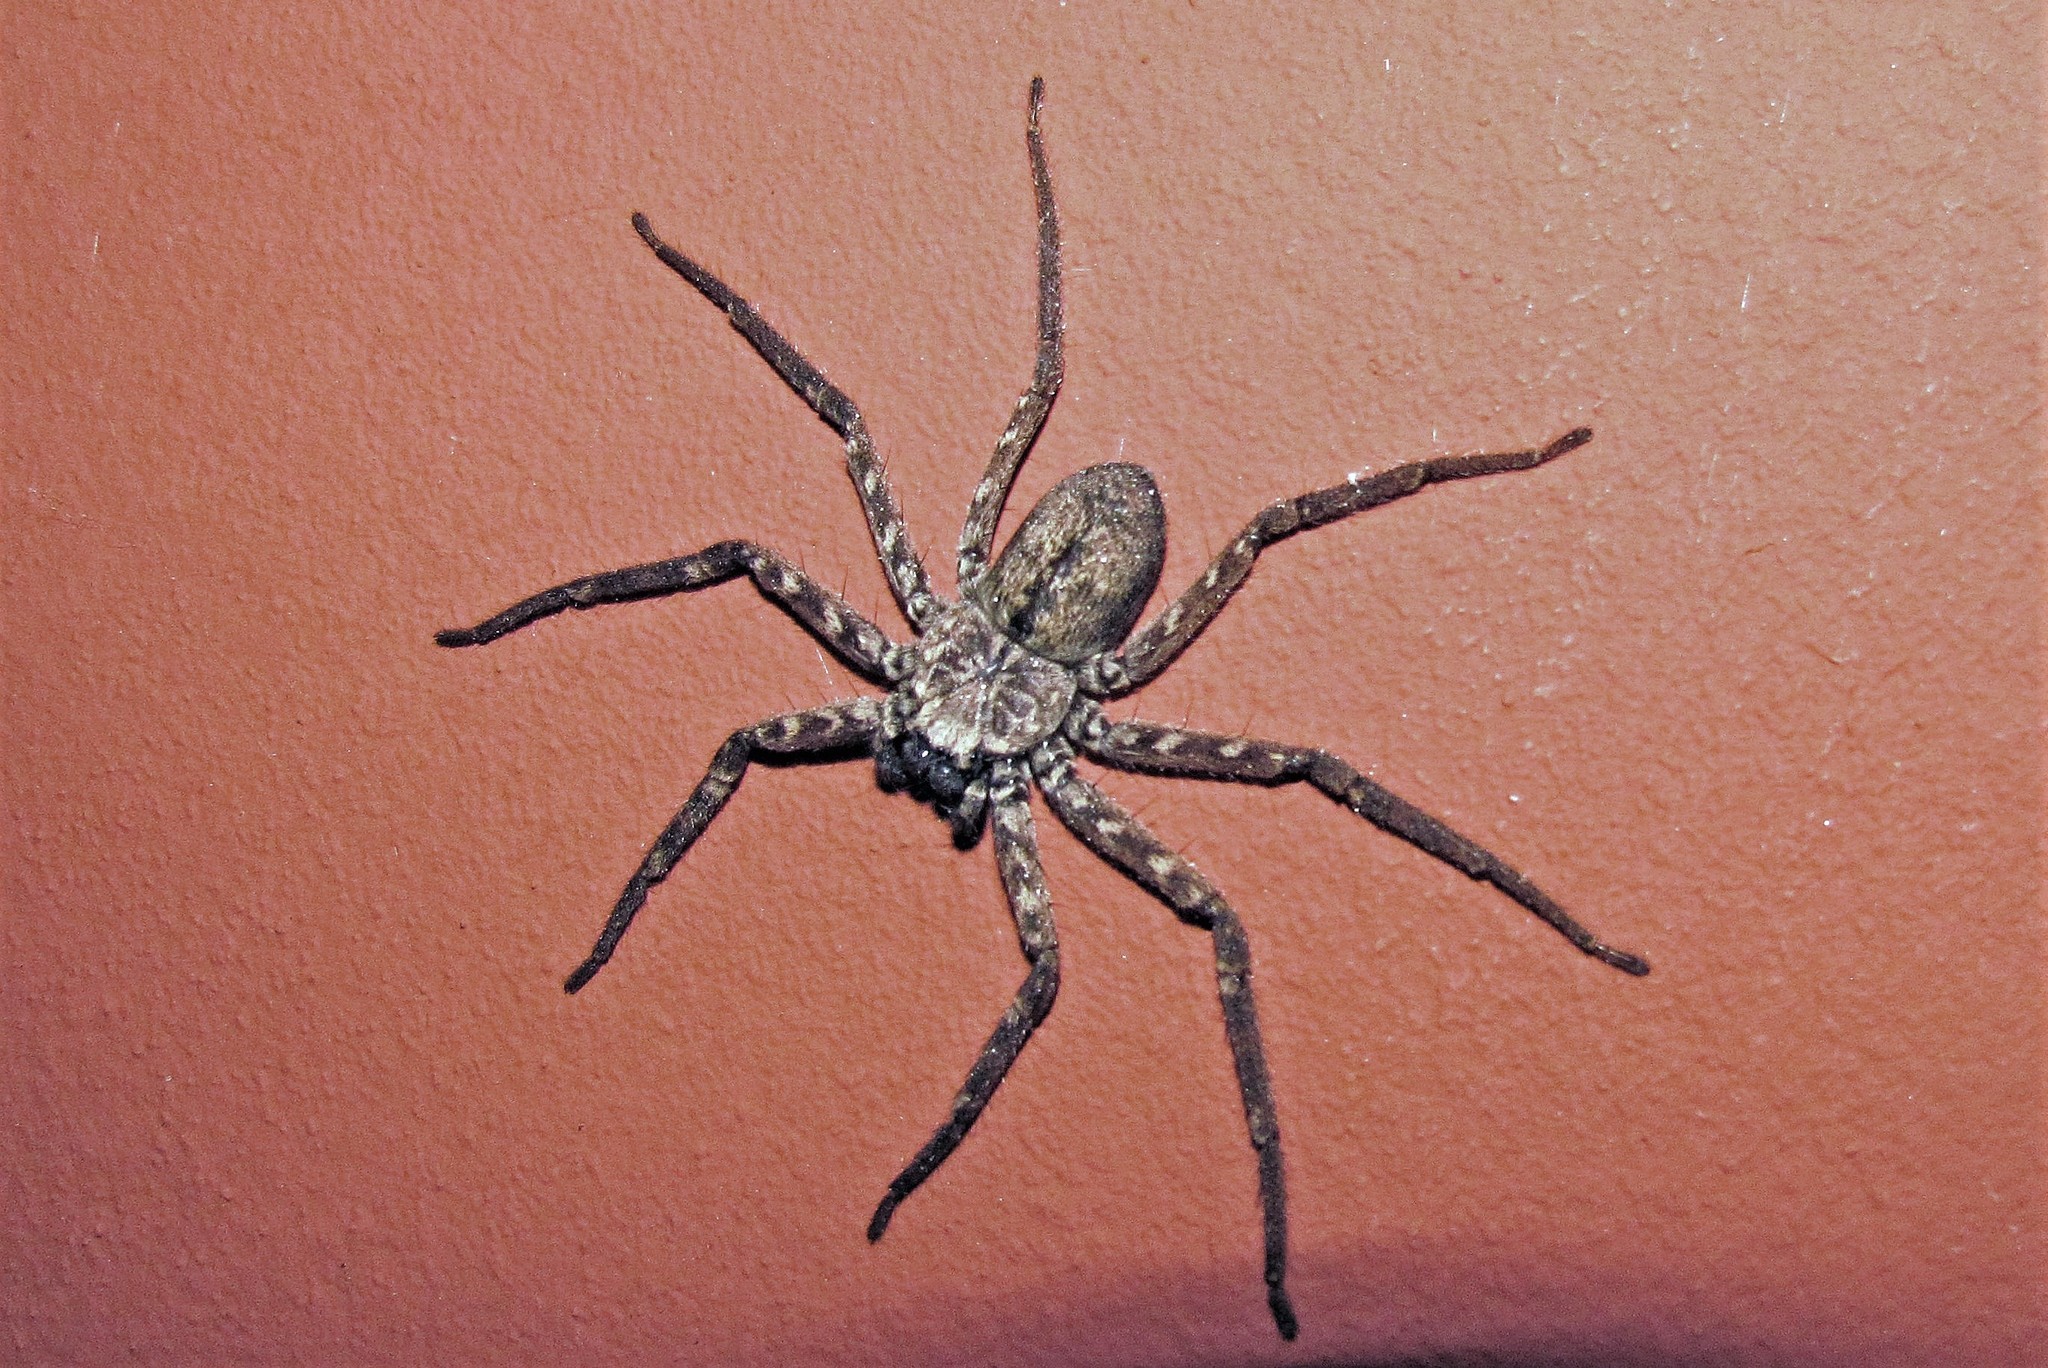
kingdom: Animalia
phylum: Arthropoda
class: Arachnida
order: Araneae
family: Selenopidae
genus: Selenops
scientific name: Selenops
